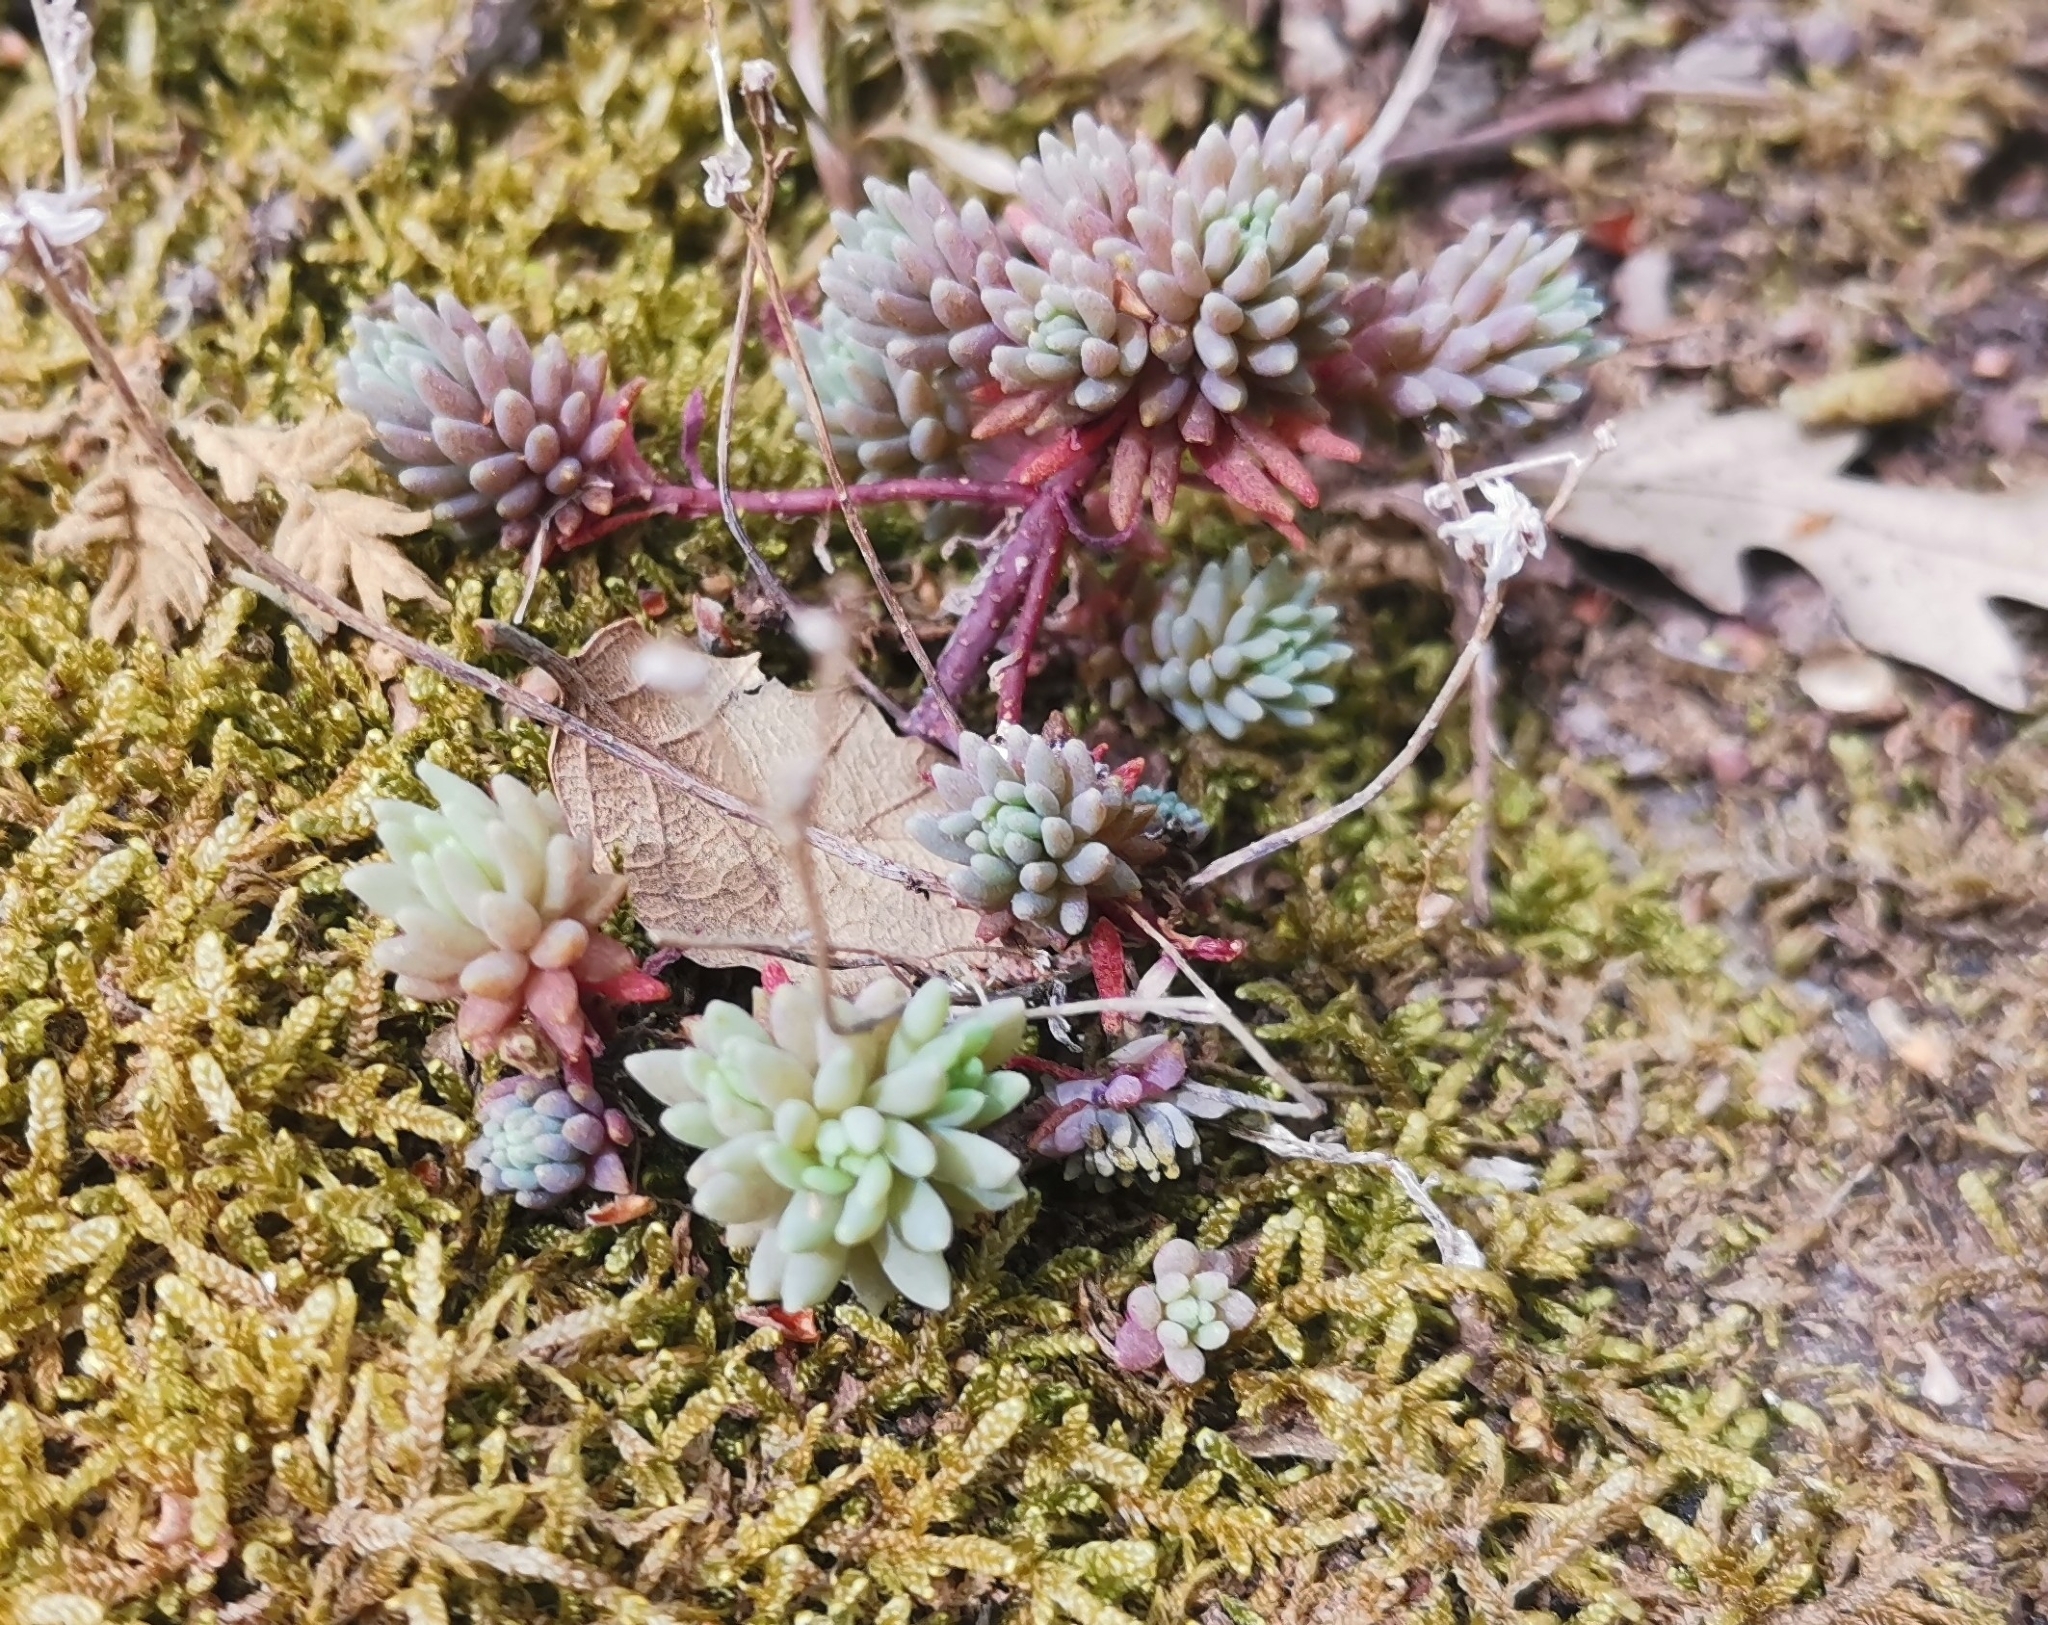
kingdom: Plantae
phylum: Tracheophyta
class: Magnoliopsida
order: Saxifragales
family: Crassulaceae
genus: Sedum
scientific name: Sedum hispanicum
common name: Spanish stonecrop
